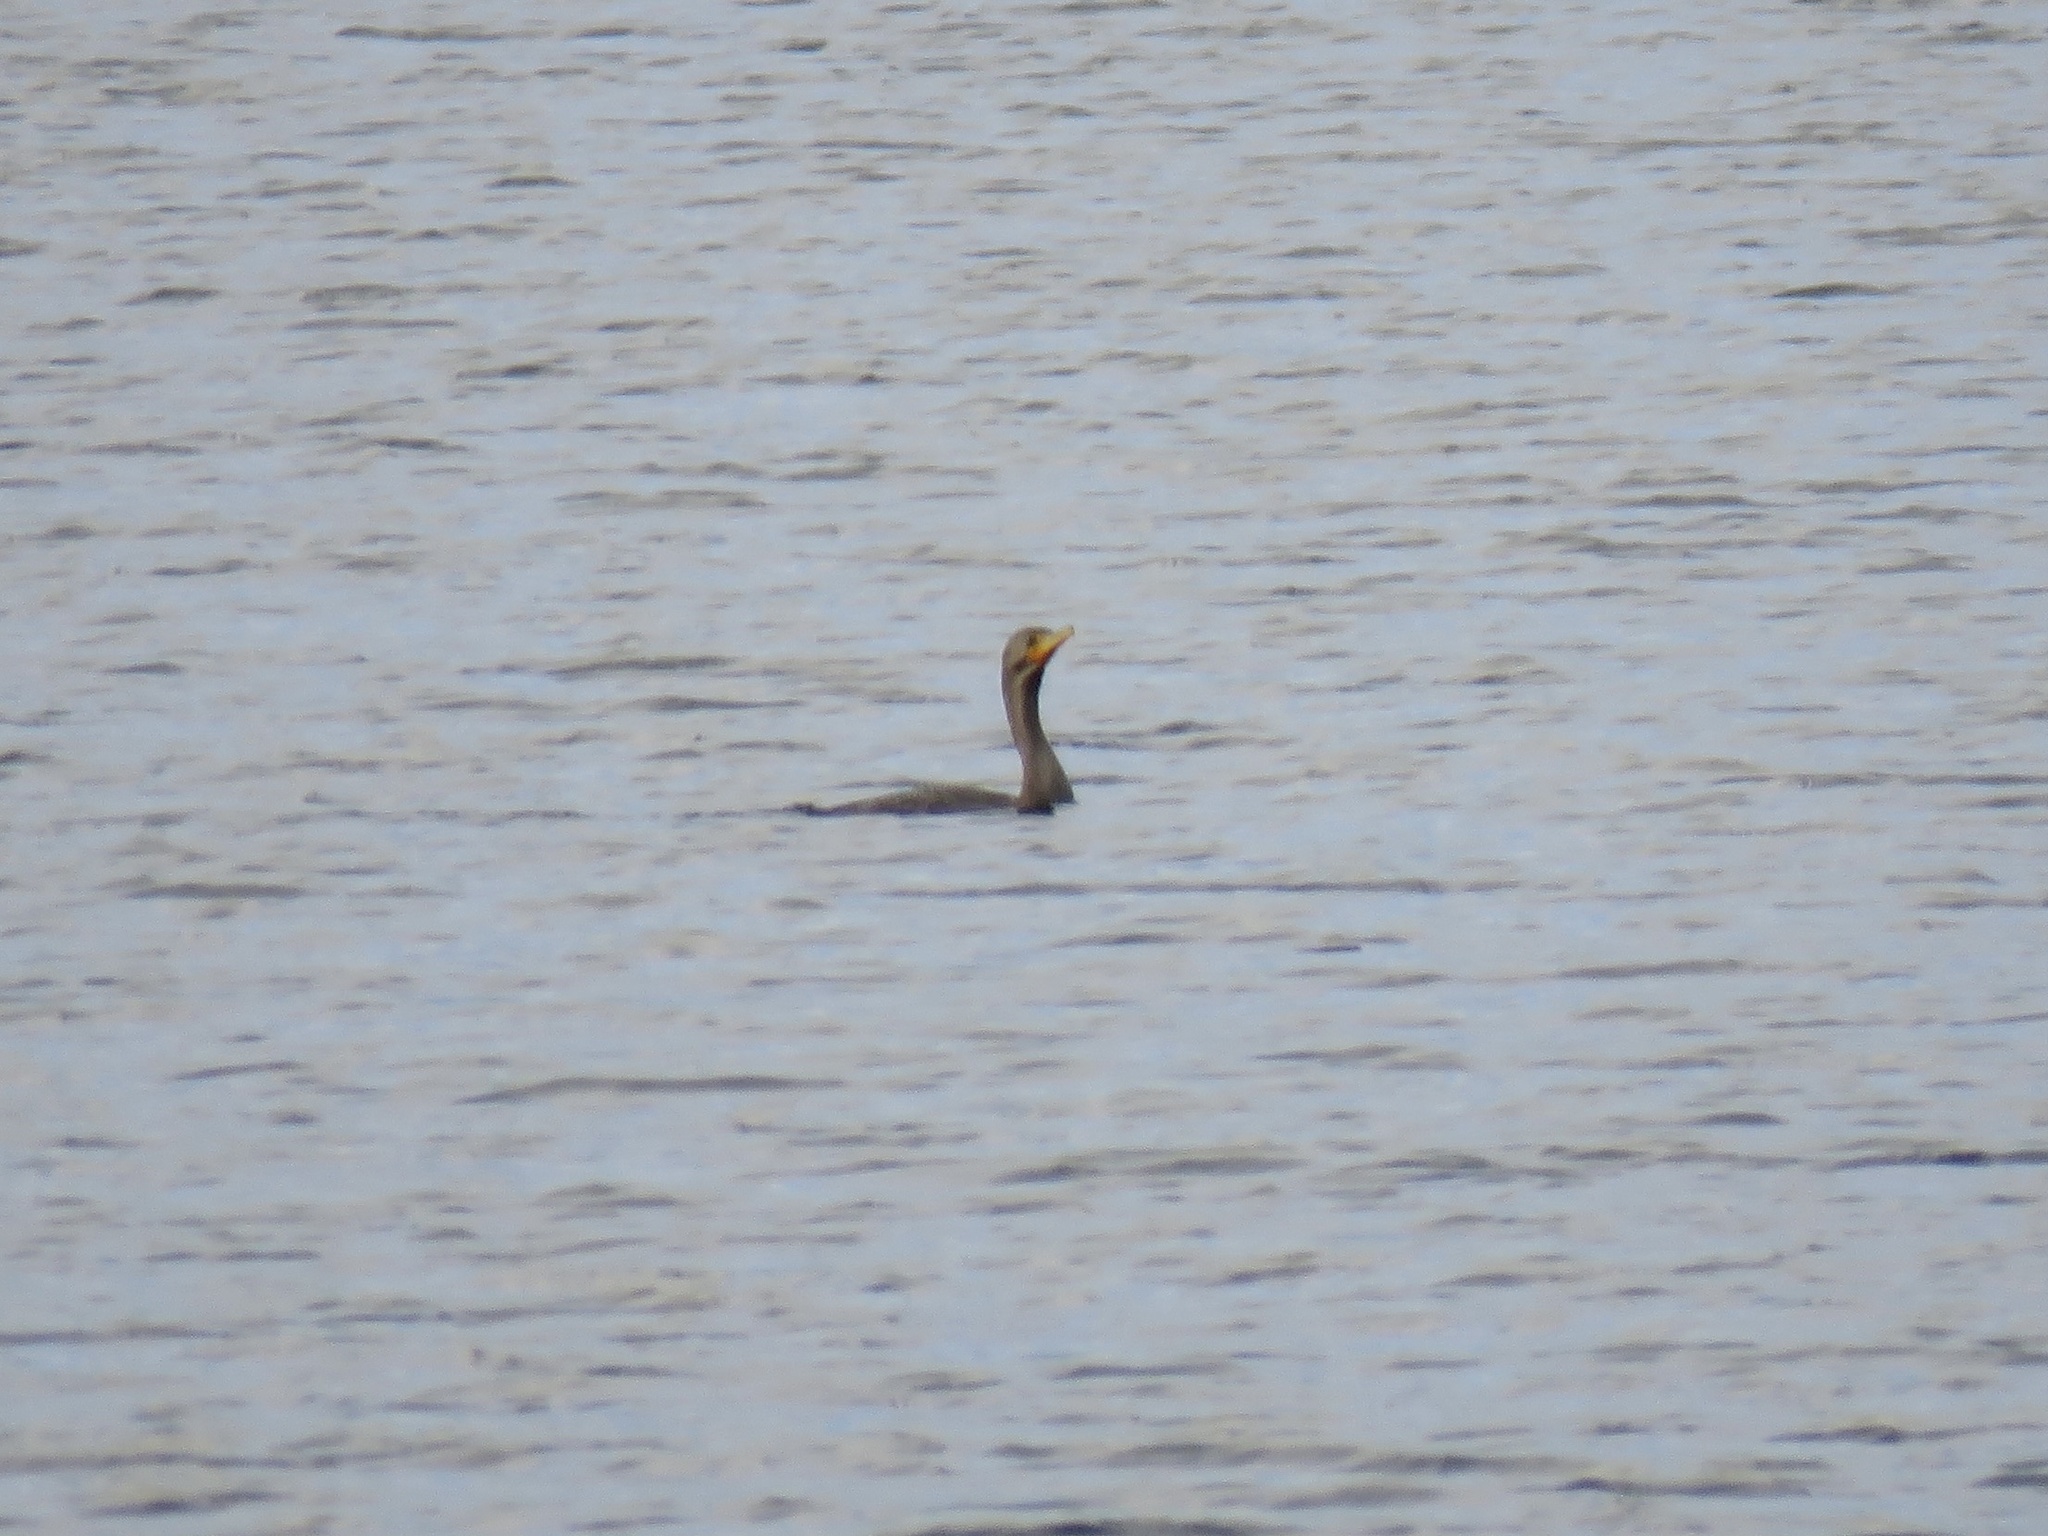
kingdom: Animalia
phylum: Chordata
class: Aves
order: Suliformes
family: Phalacrocoracidae
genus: Phalacrocorax
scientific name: Phalacrocorax auritus
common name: Double-crested cormorant
